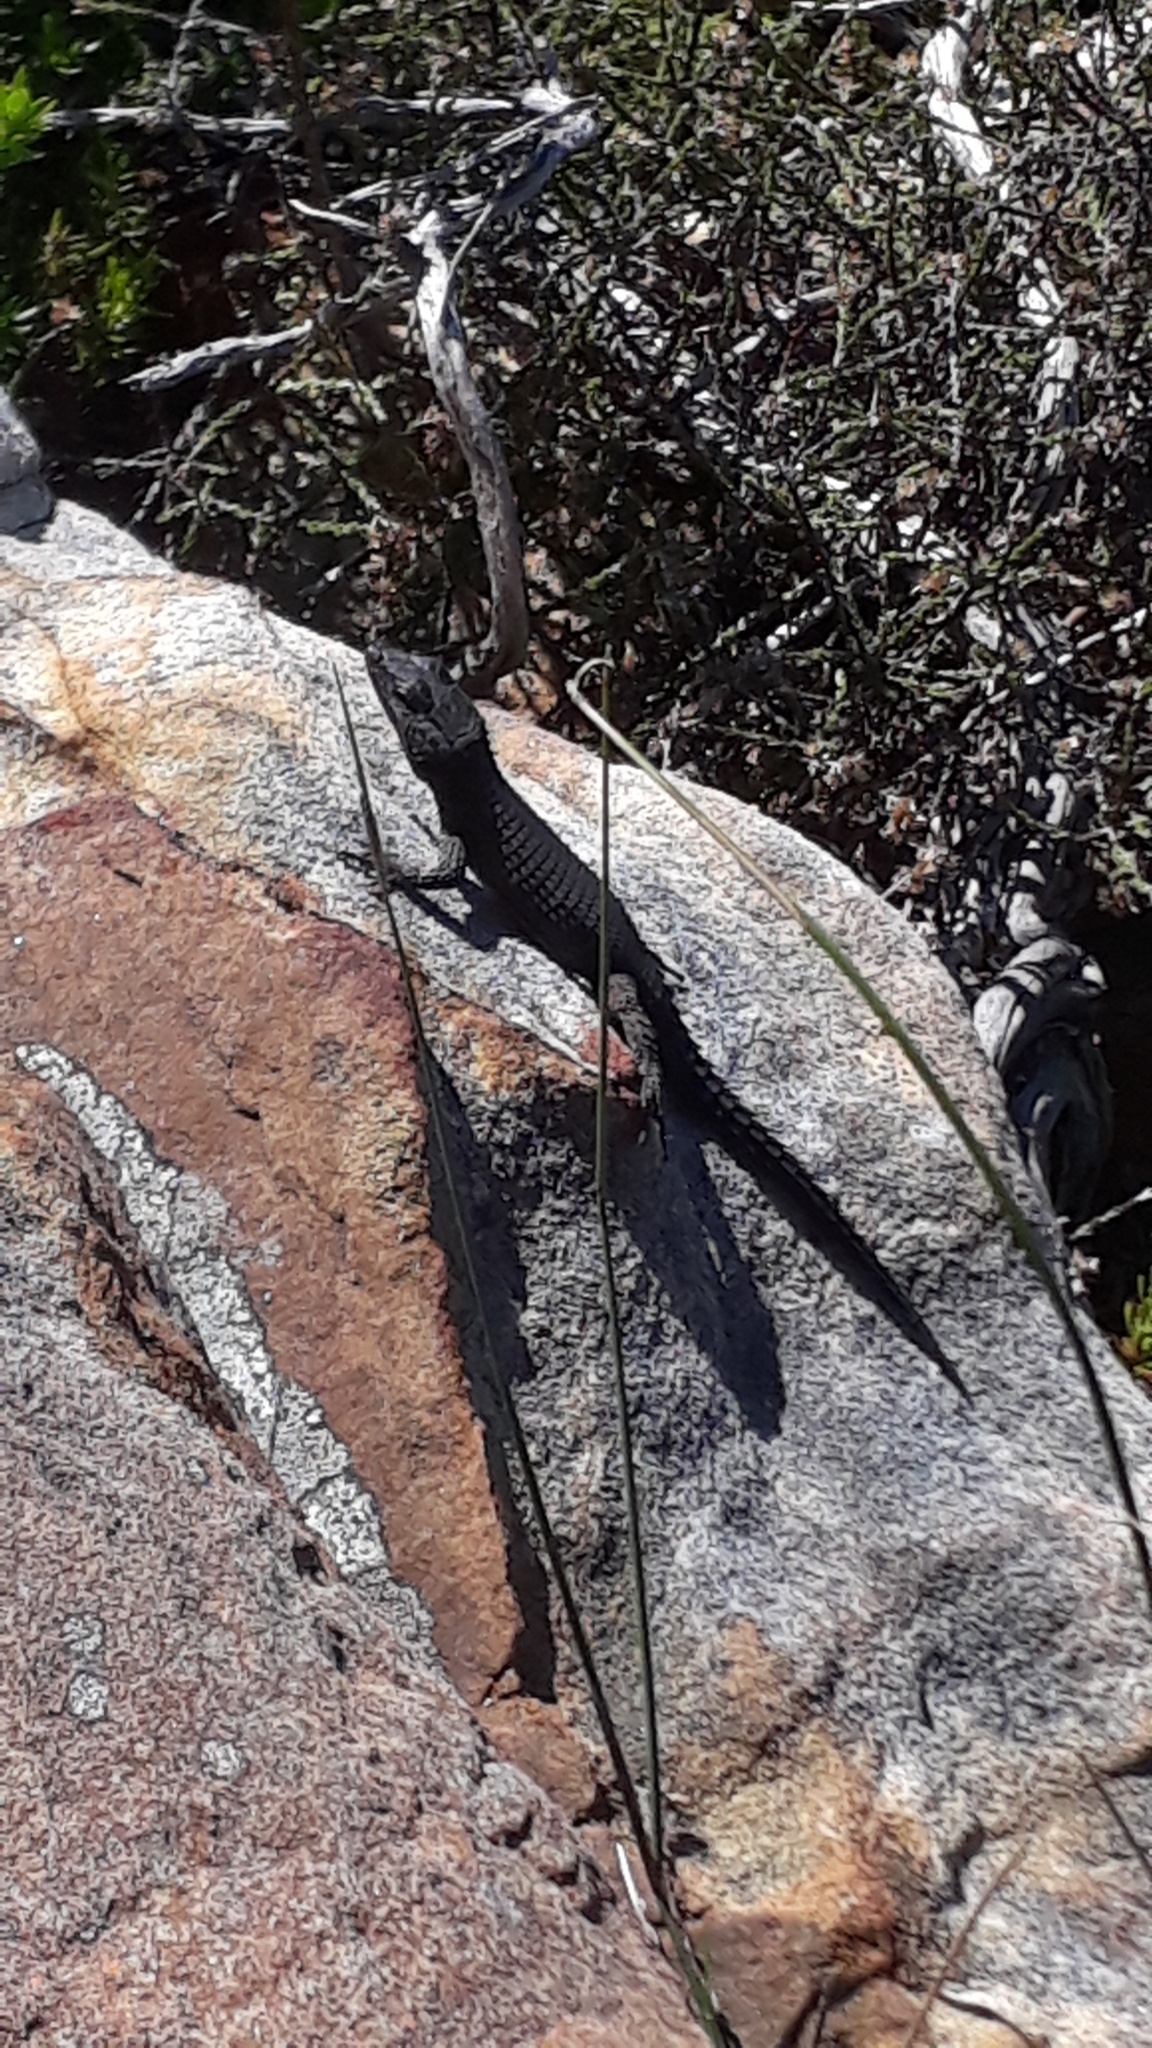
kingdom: Animalia
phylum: Chordata
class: Squamata
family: Cordylidae
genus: Cordylus
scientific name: Cordylus niger
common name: Black girdled lizard
